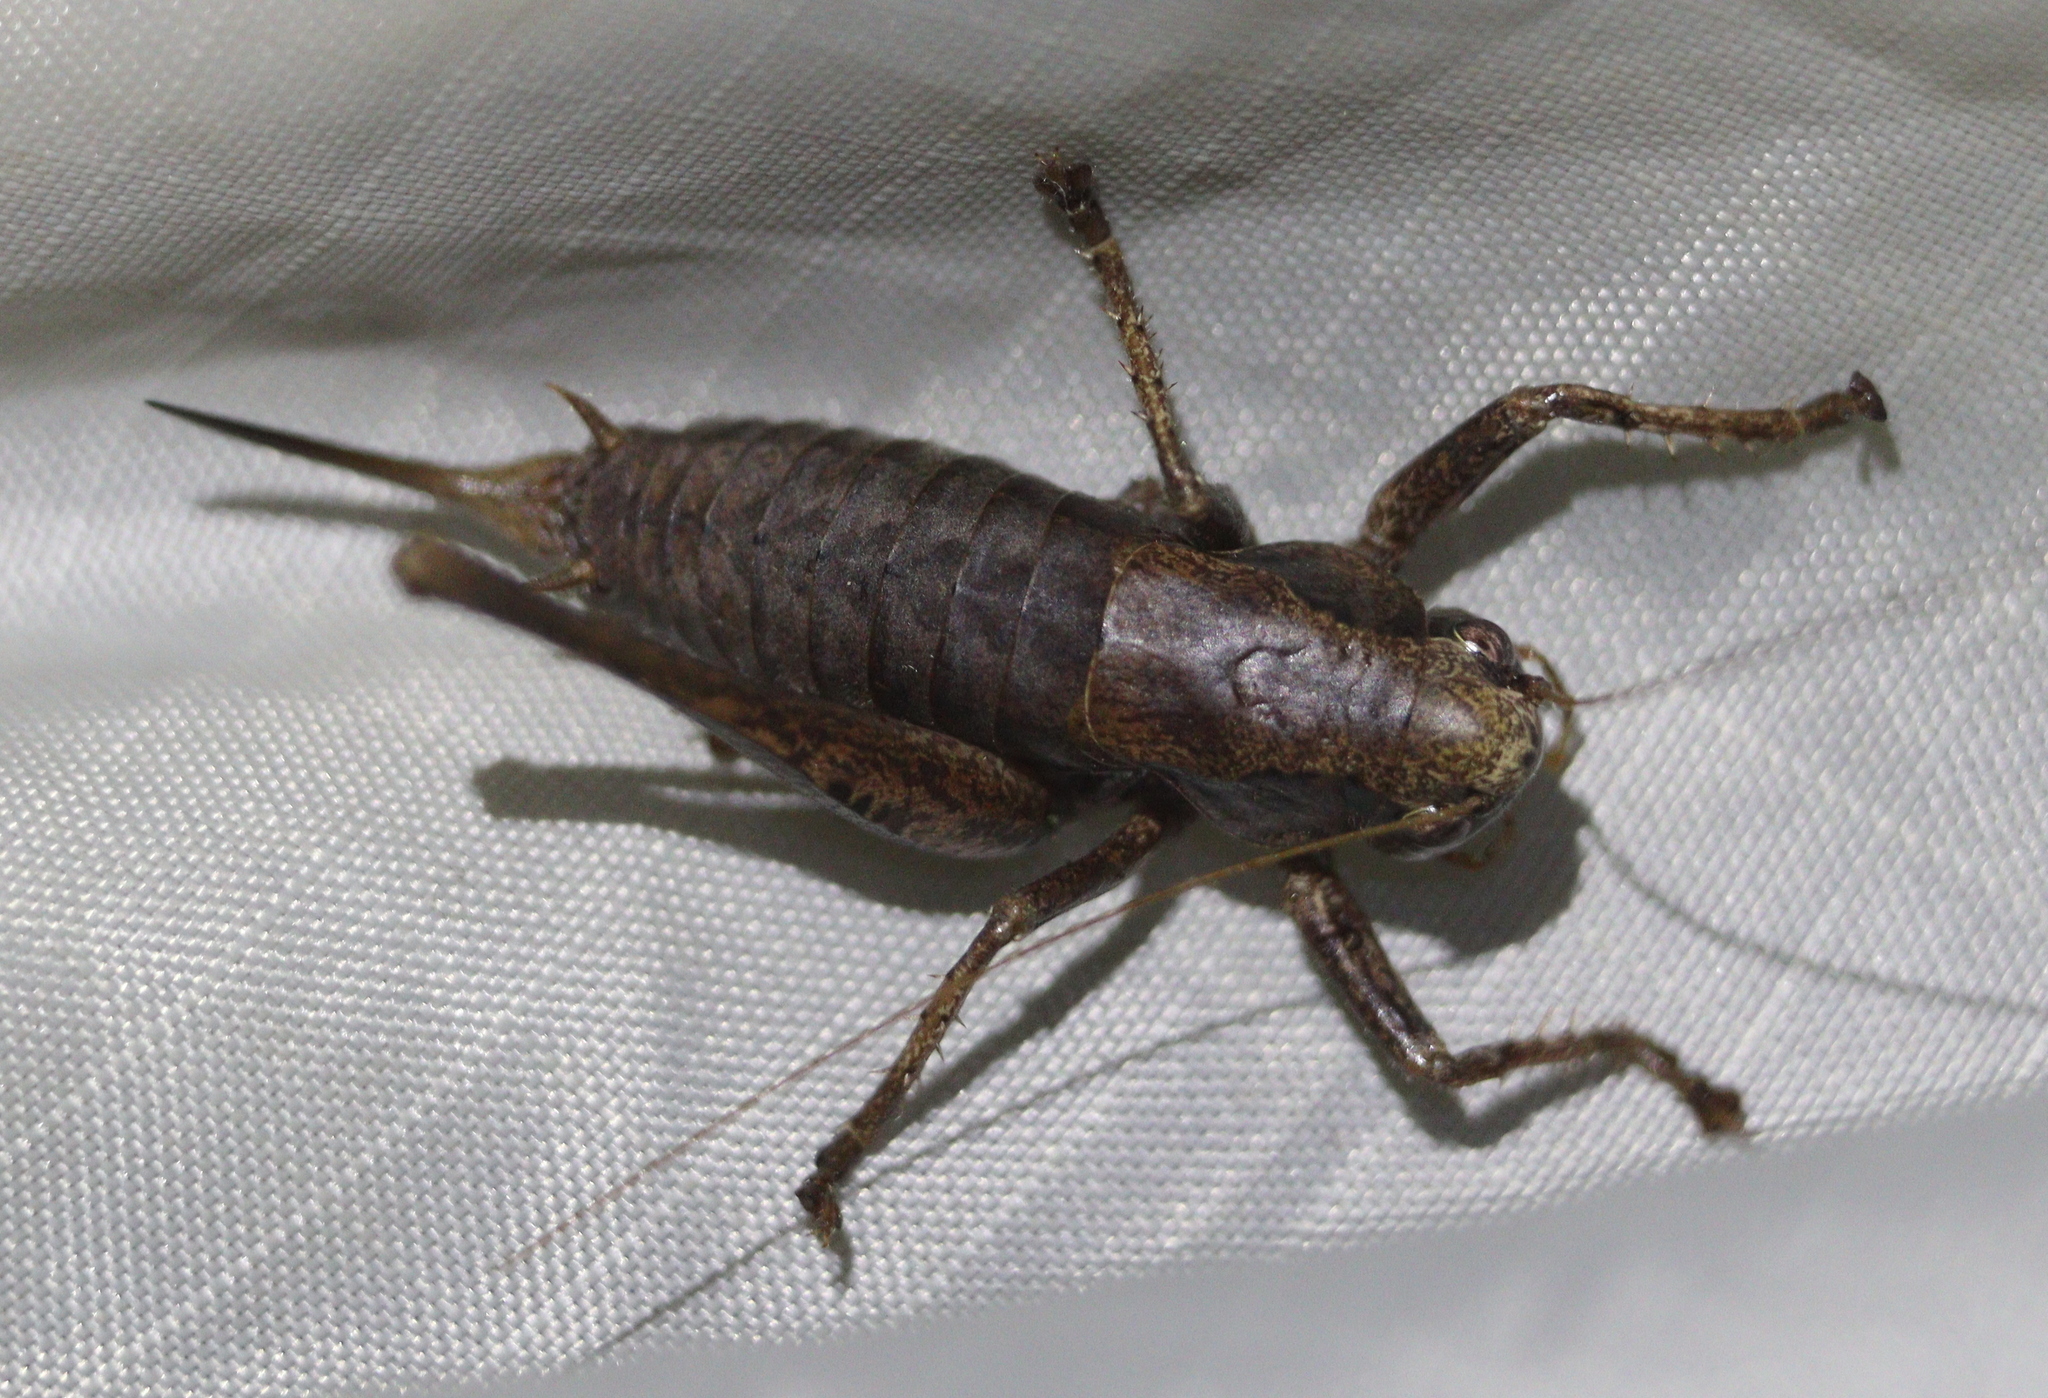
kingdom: Animalia
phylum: Arthropoda
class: Insecta
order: Orthoptera
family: Tettigoniidae
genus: Pholidoptera
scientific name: Pholidoptera griseoaptera
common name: Dark bush-cricket
